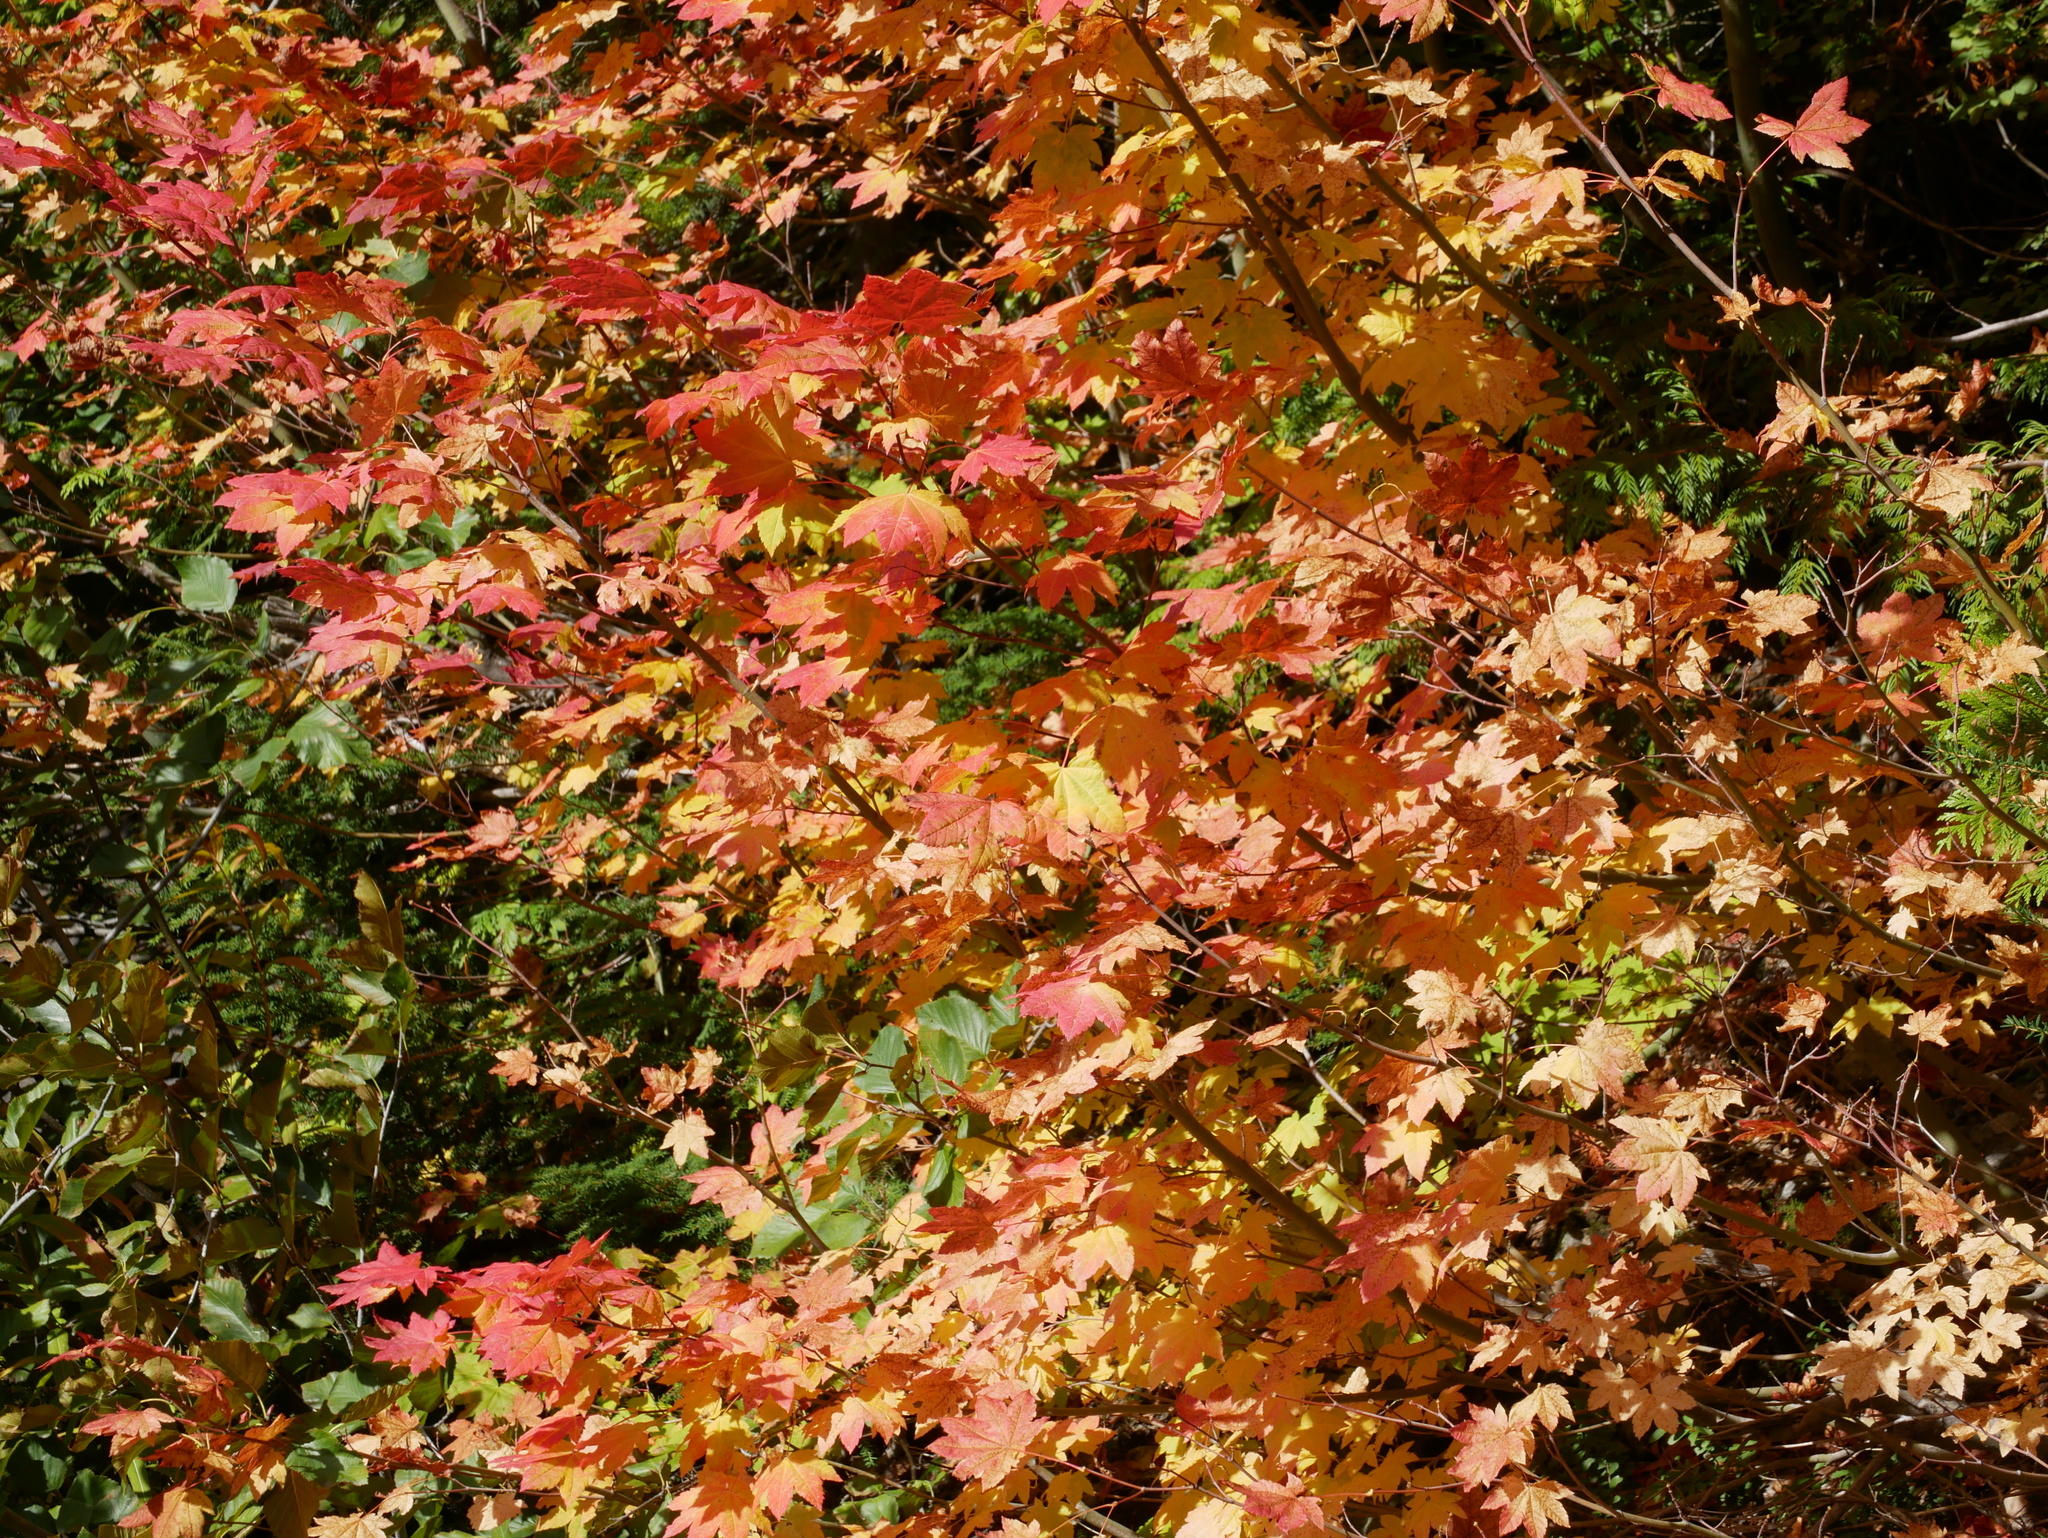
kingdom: Plantae
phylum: Tracheophyta
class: Magnoliopsida
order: Sapindales
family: Sapindaceae
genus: Acer
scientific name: Acer circinatum
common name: Vine maple
